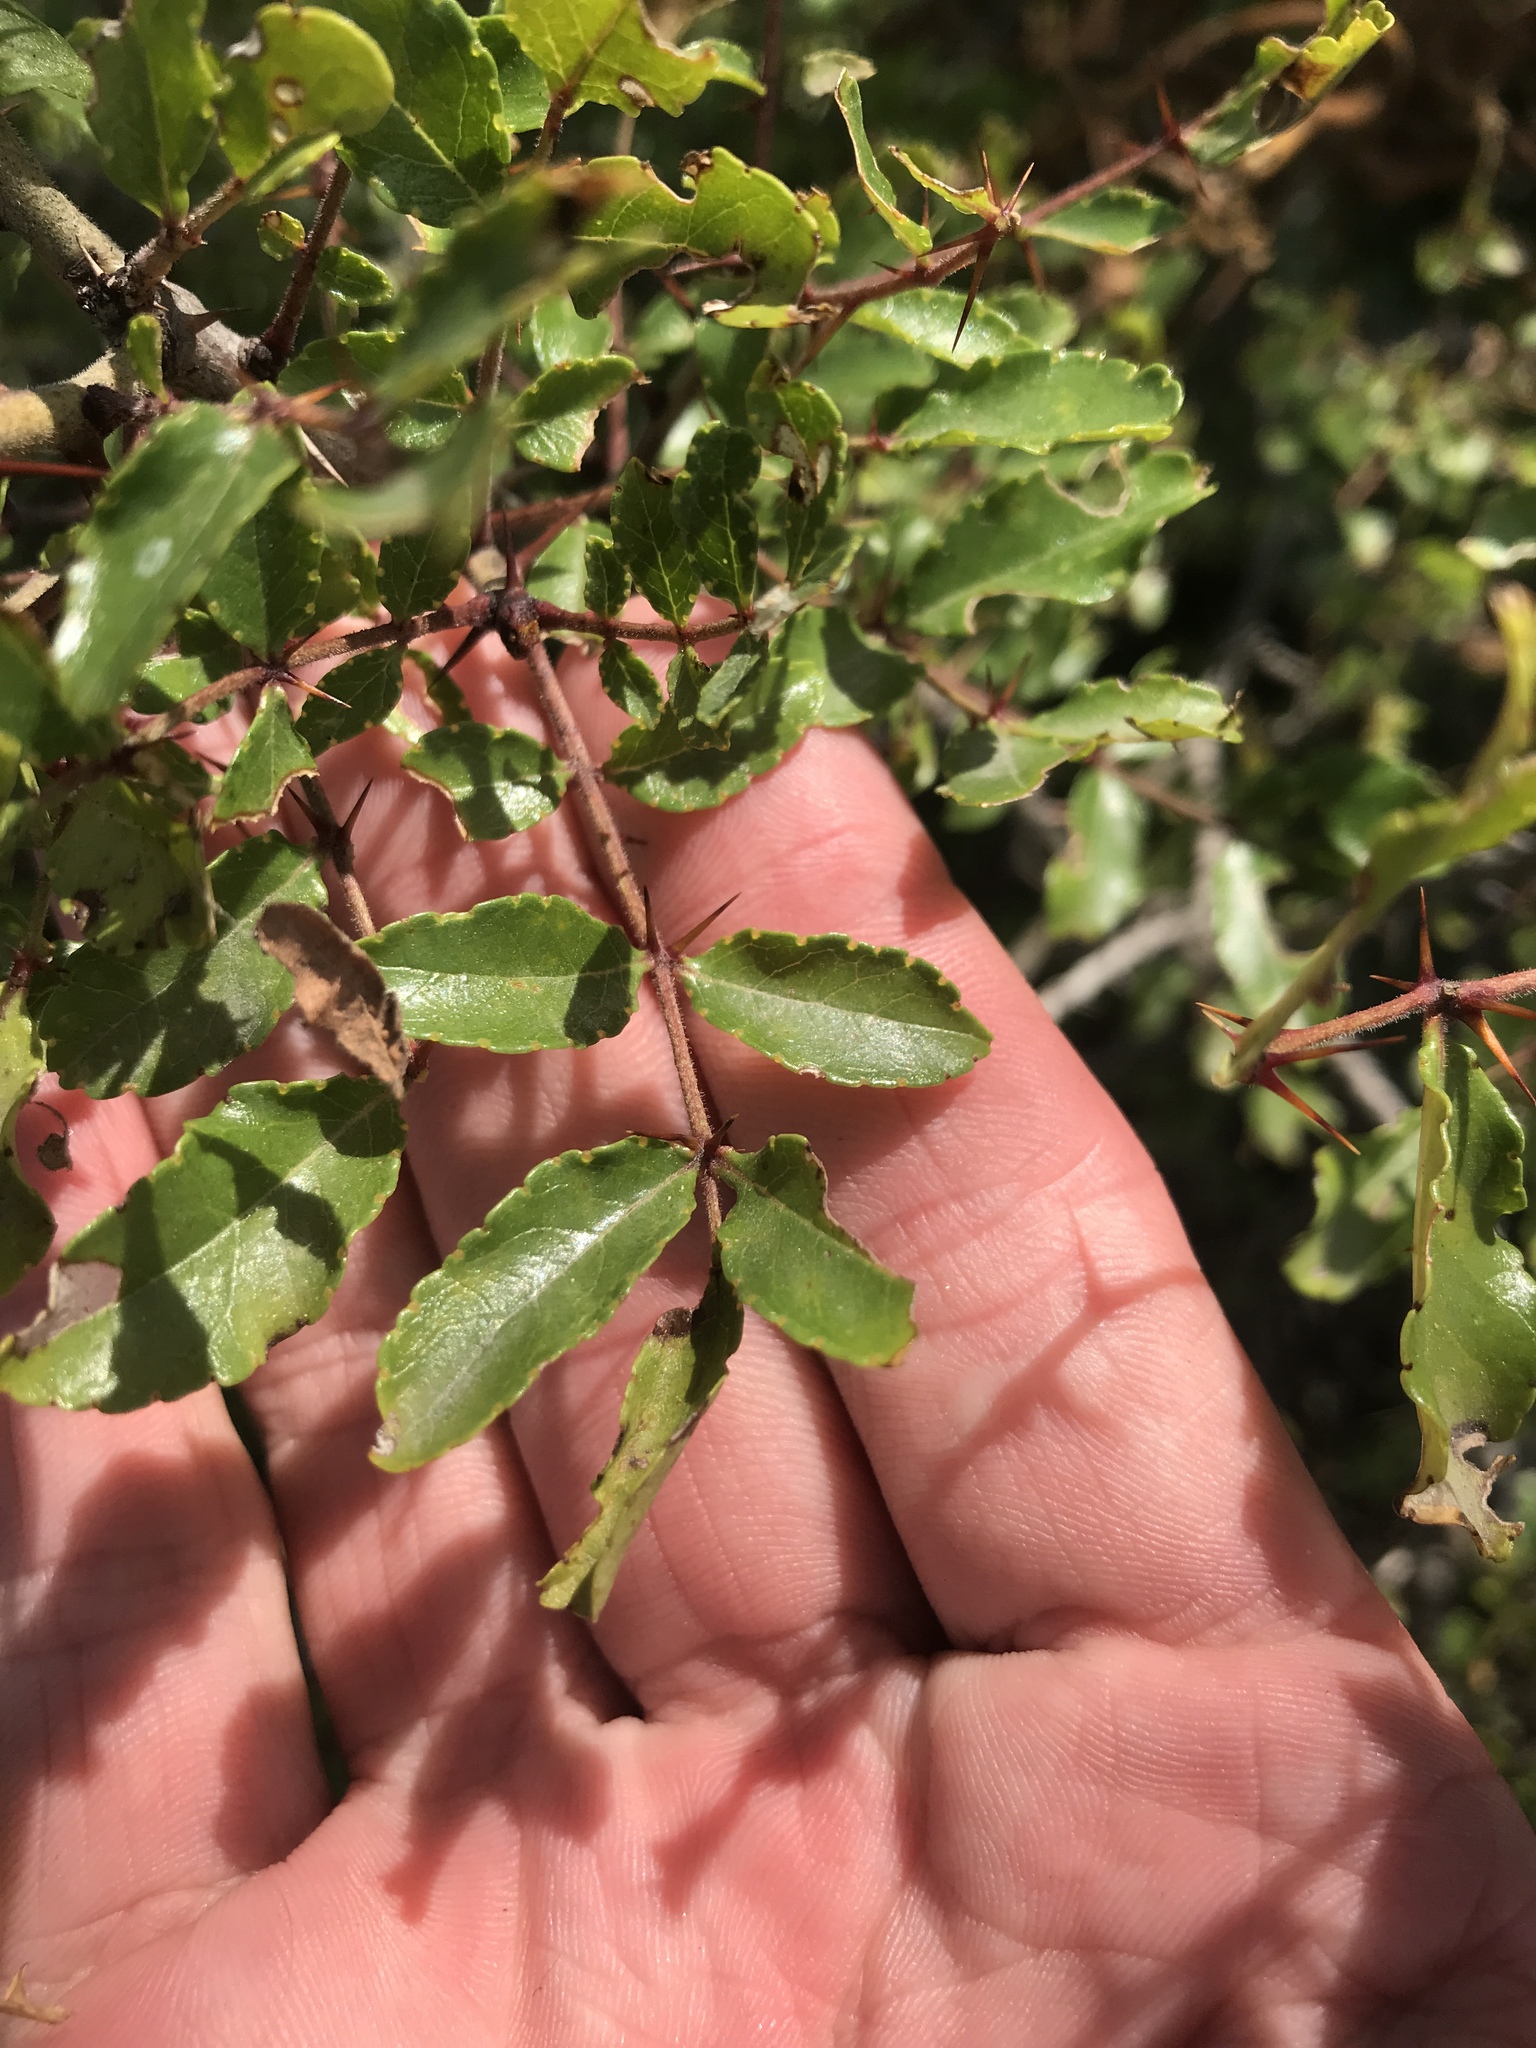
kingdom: Plantae
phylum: Tracheophyta
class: Magnoliopsida
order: Sapindales
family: Rutaceae
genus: Zanthoxylum
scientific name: Zanthoxylum clava-herculis
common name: Hercules'-club
